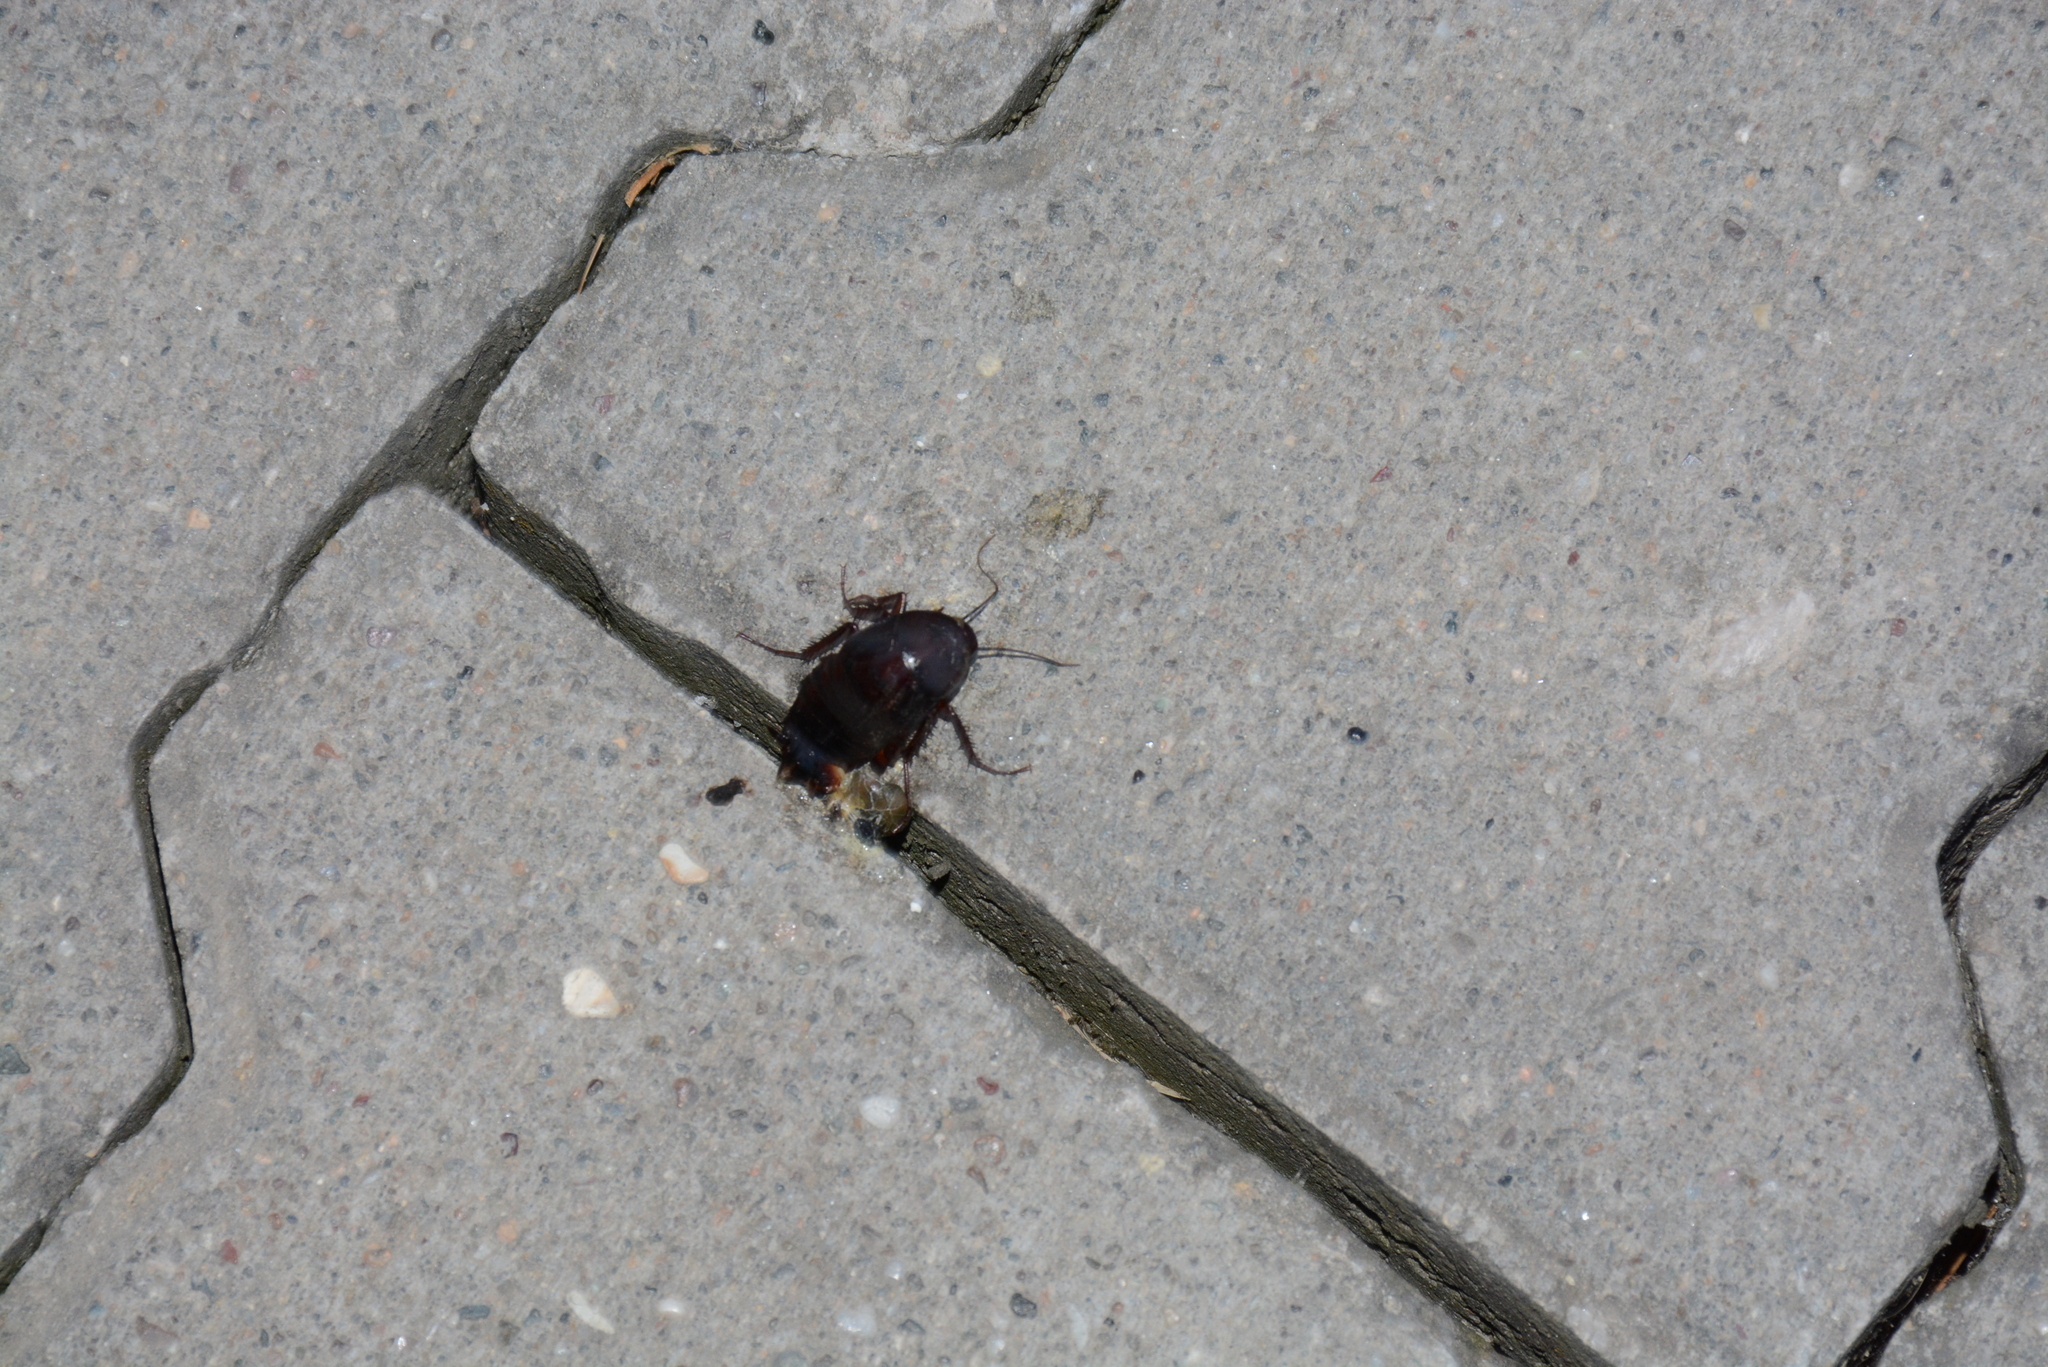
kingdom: Animalia
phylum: Arthropoda
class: Insecta
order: Blattodea
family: Blattidae
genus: Blatta
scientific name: Blatta orientalis
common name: Oriental cockroach
